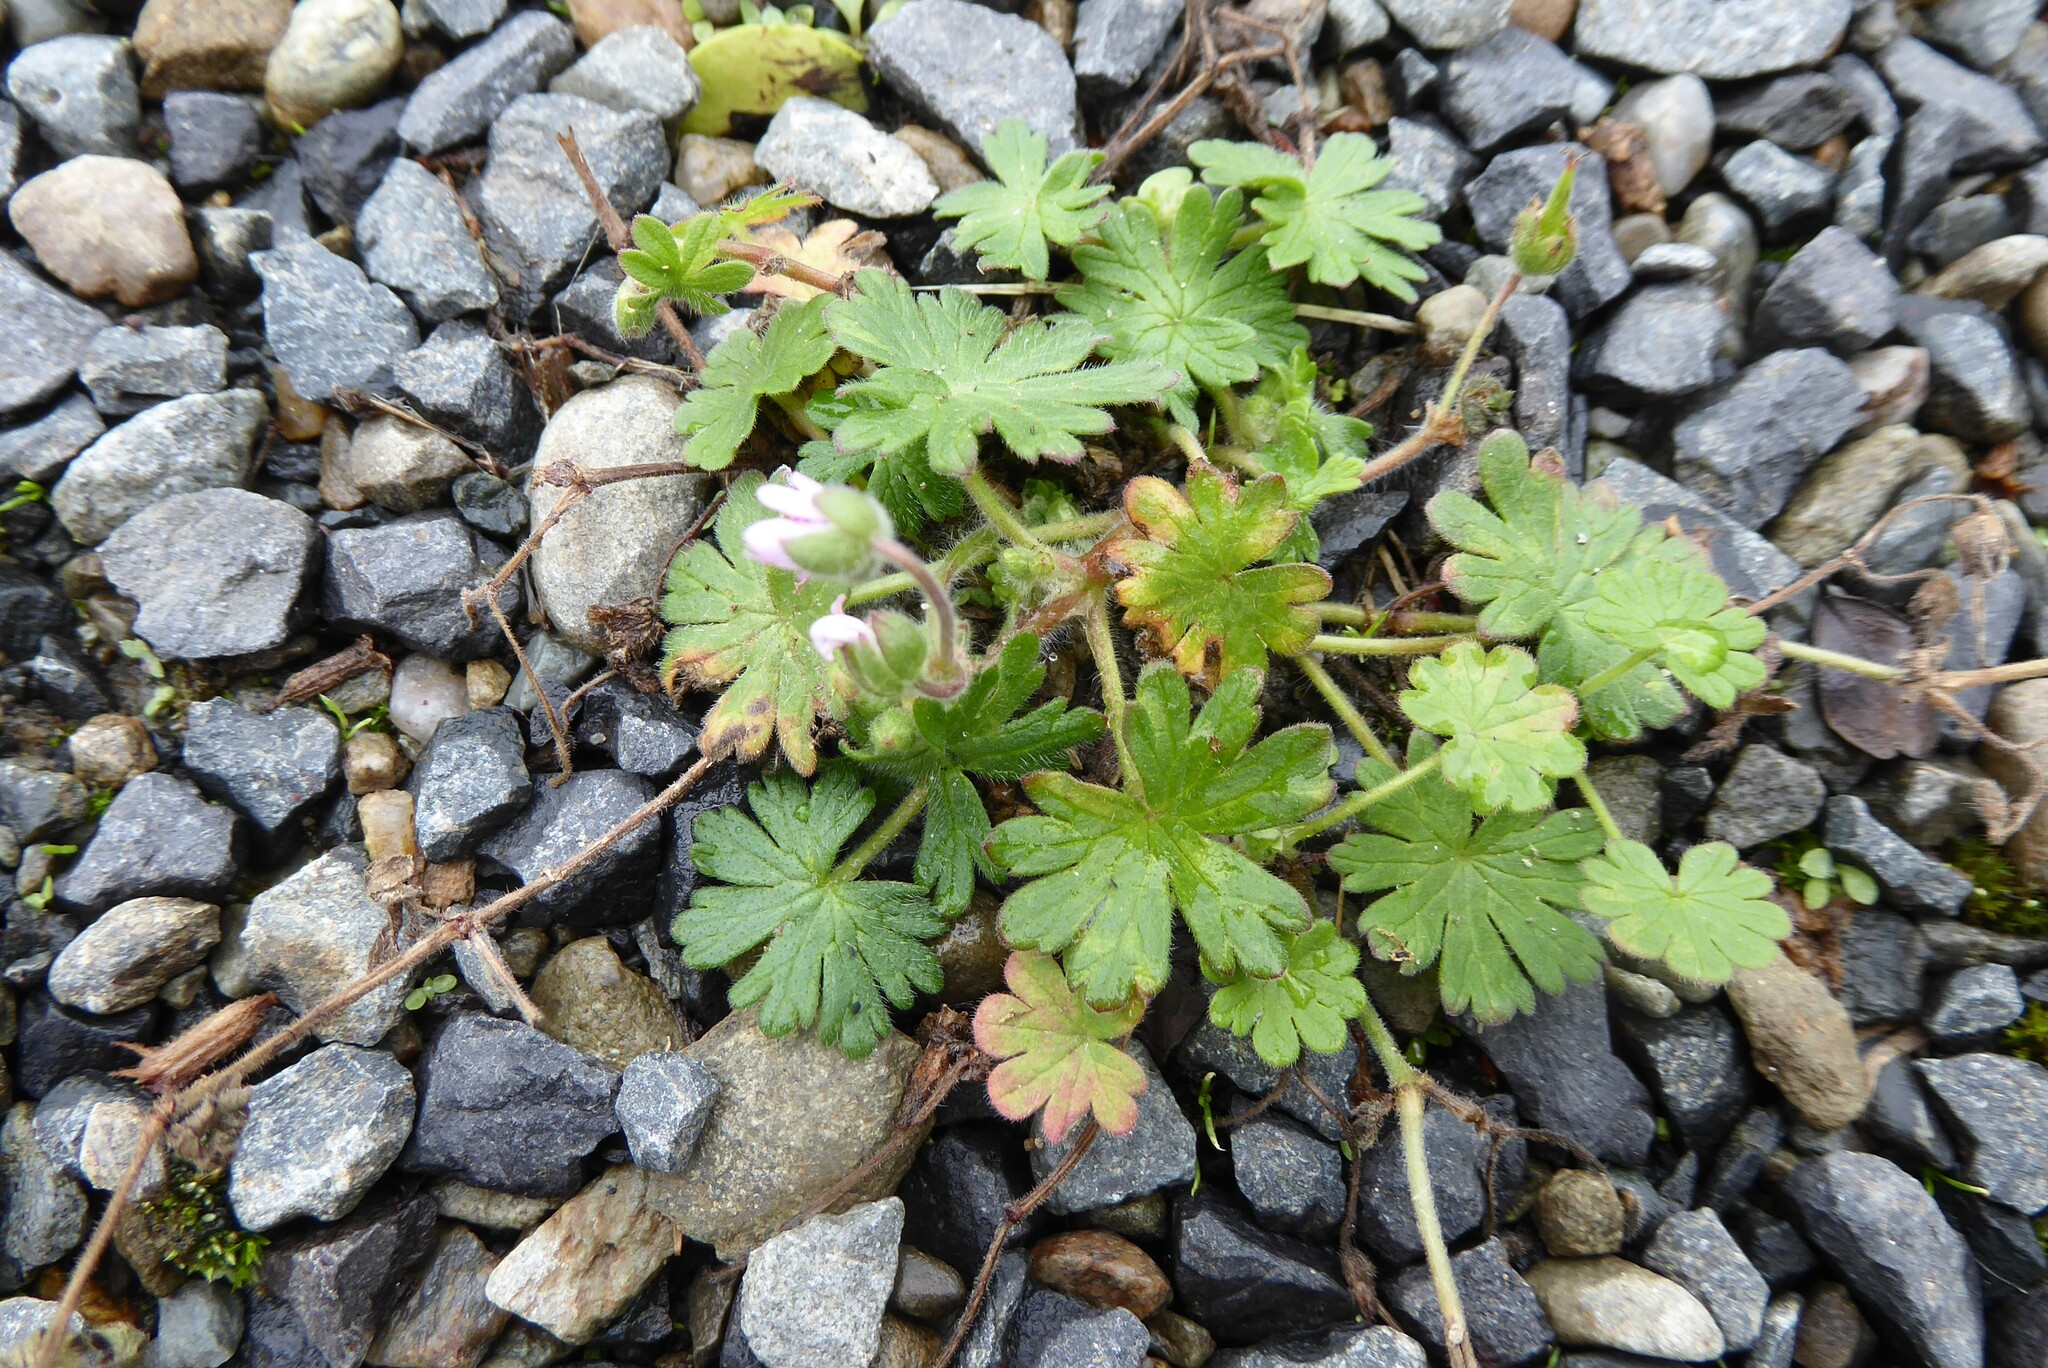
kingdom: Plantae
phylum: Tracheophyta
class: Magnoliopsida
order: Geraniales
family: Geraniaceae
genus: Geranium
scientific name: Geranium molle
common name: Dove's-foot crane's-bill
